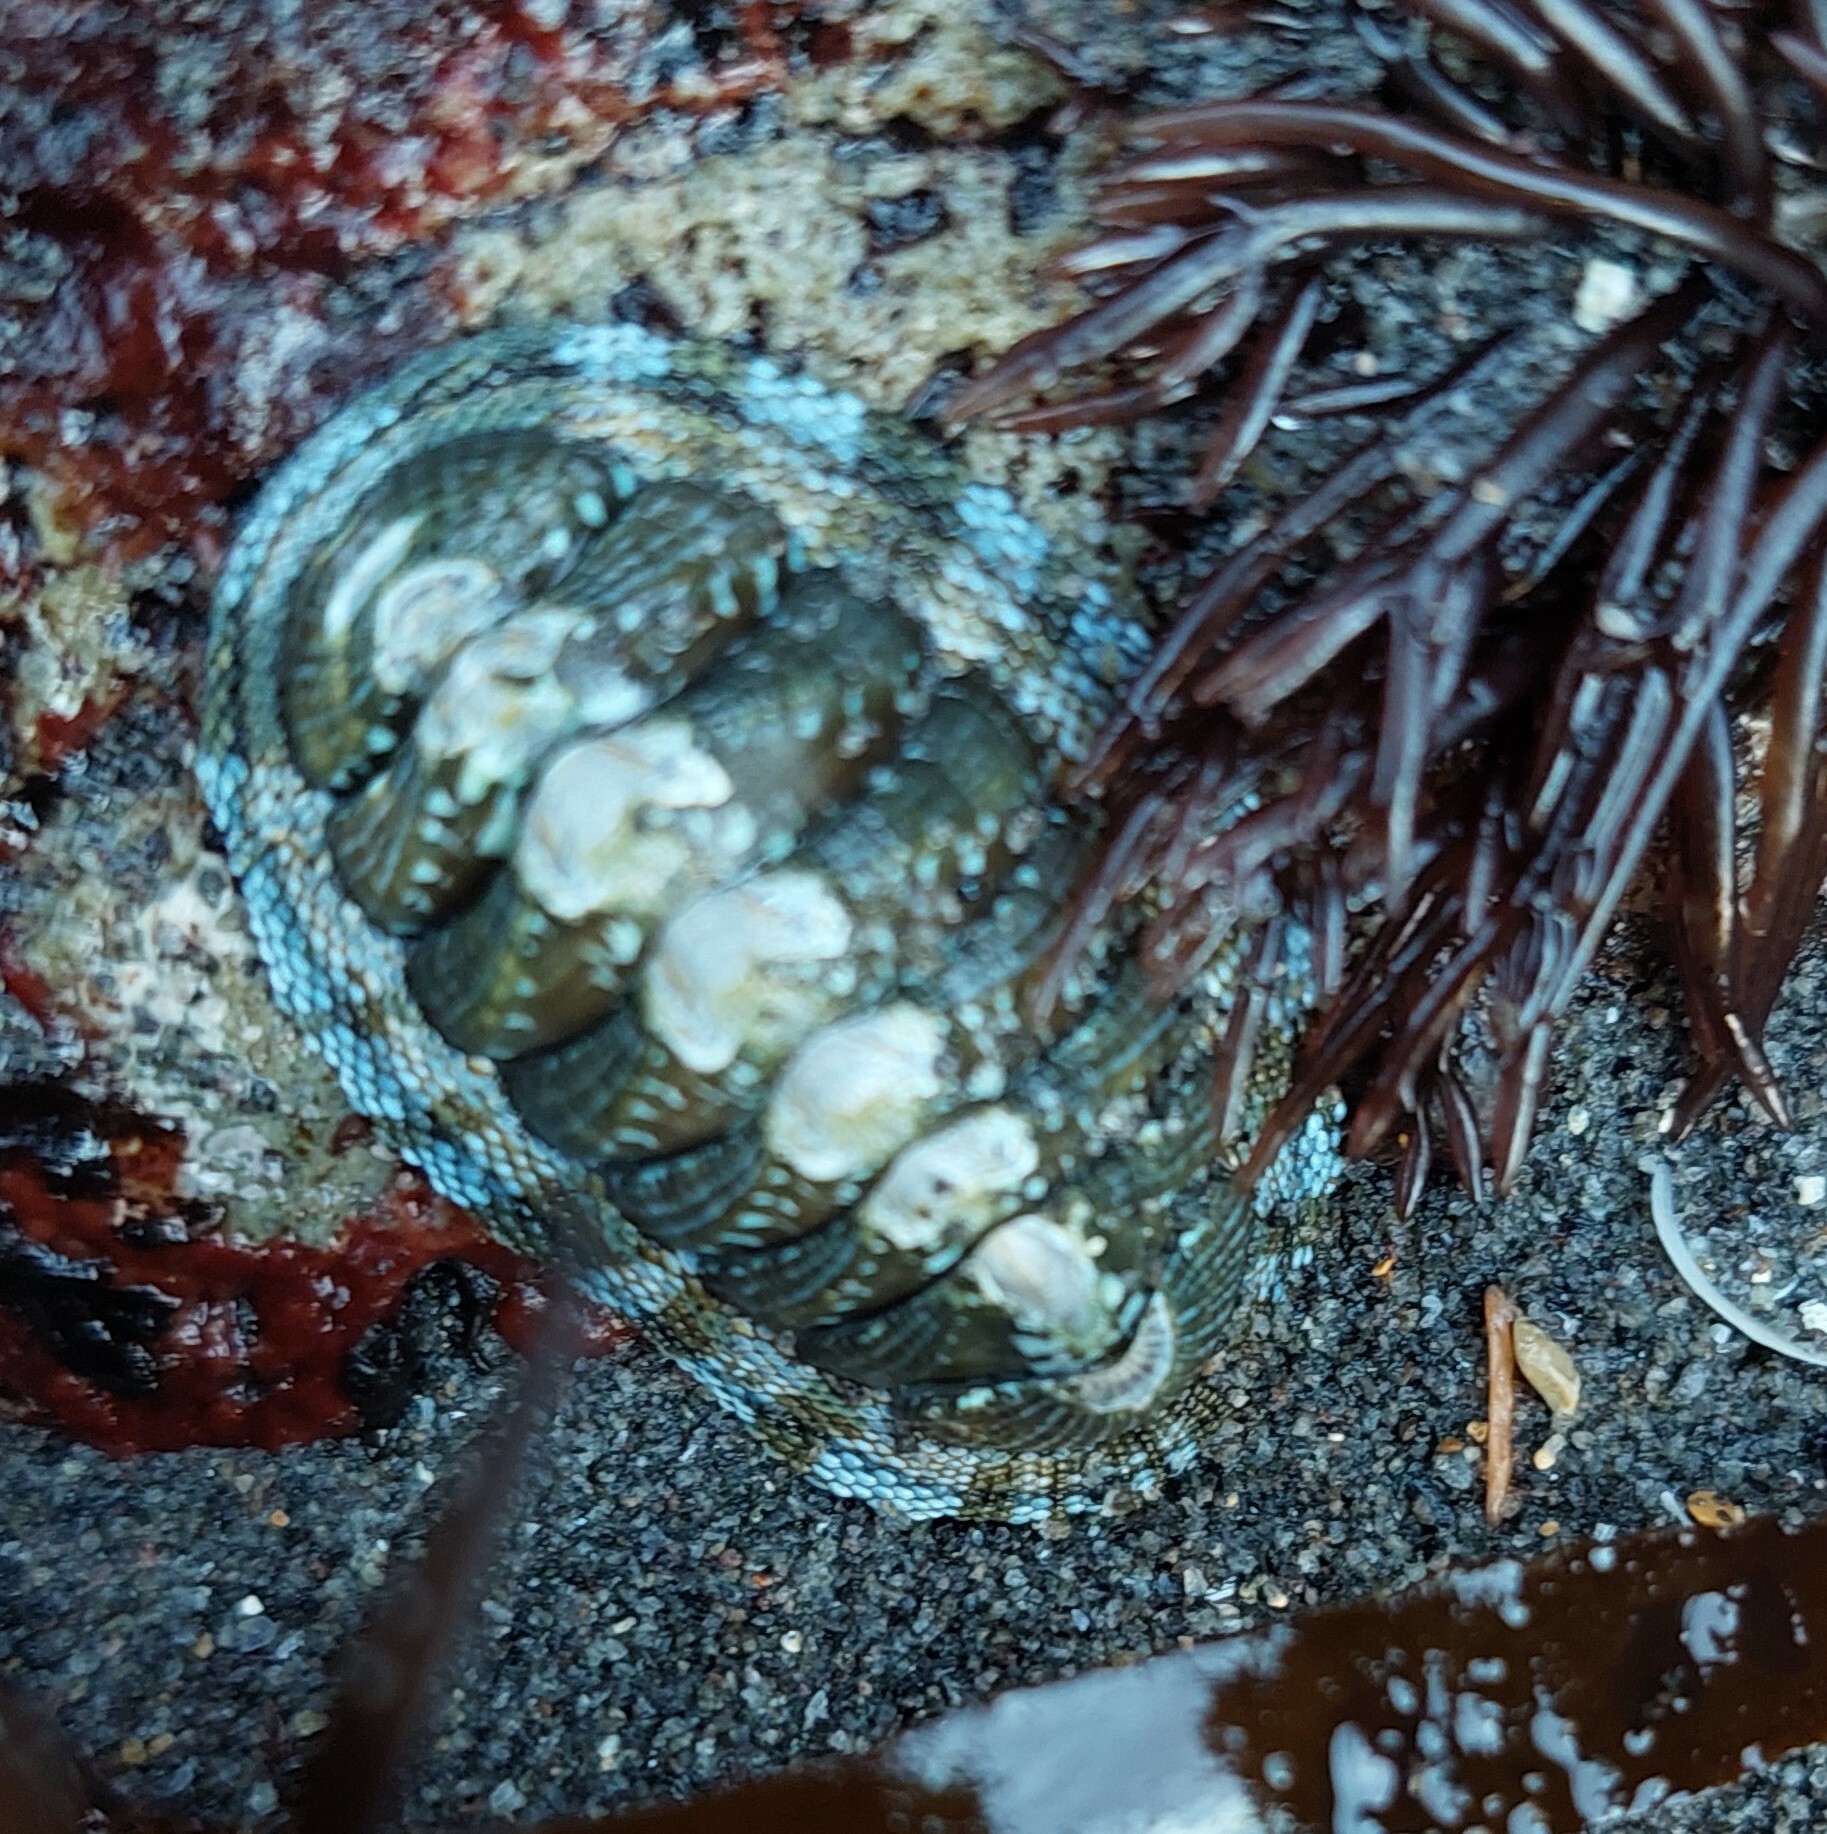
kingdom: Animalia
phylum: Mollusca
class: Polyplacophora
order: Chitonida
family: Chitonidae
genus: Sypharochiton
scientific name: Sypharochiton sinclairi
